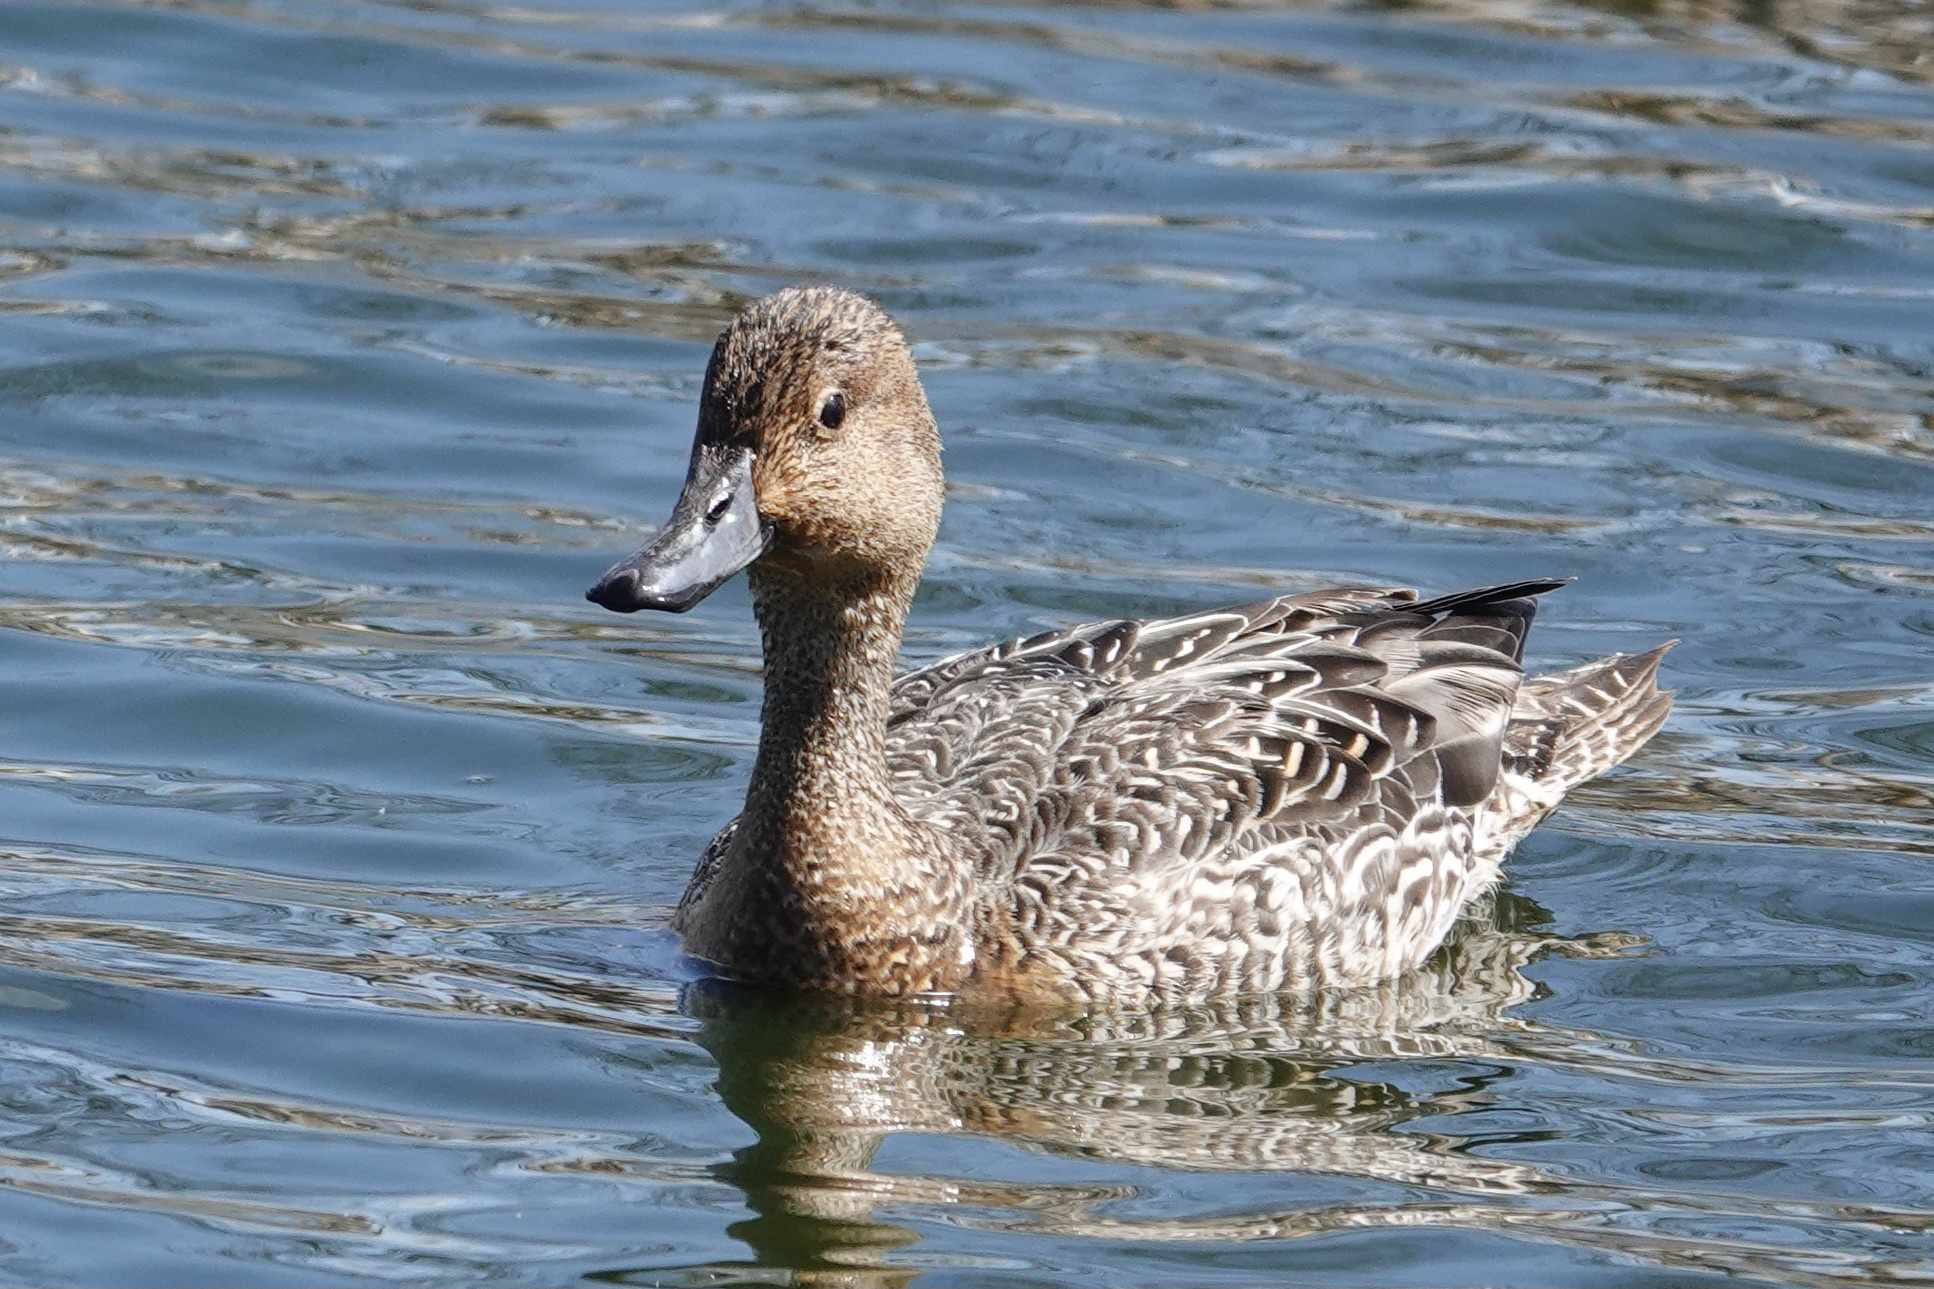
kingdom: Animalia
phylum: Chordata
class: Aves
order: Anseriformes
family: Anatidae
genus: Anas
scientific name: Anas acuta
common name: Northern pintail
